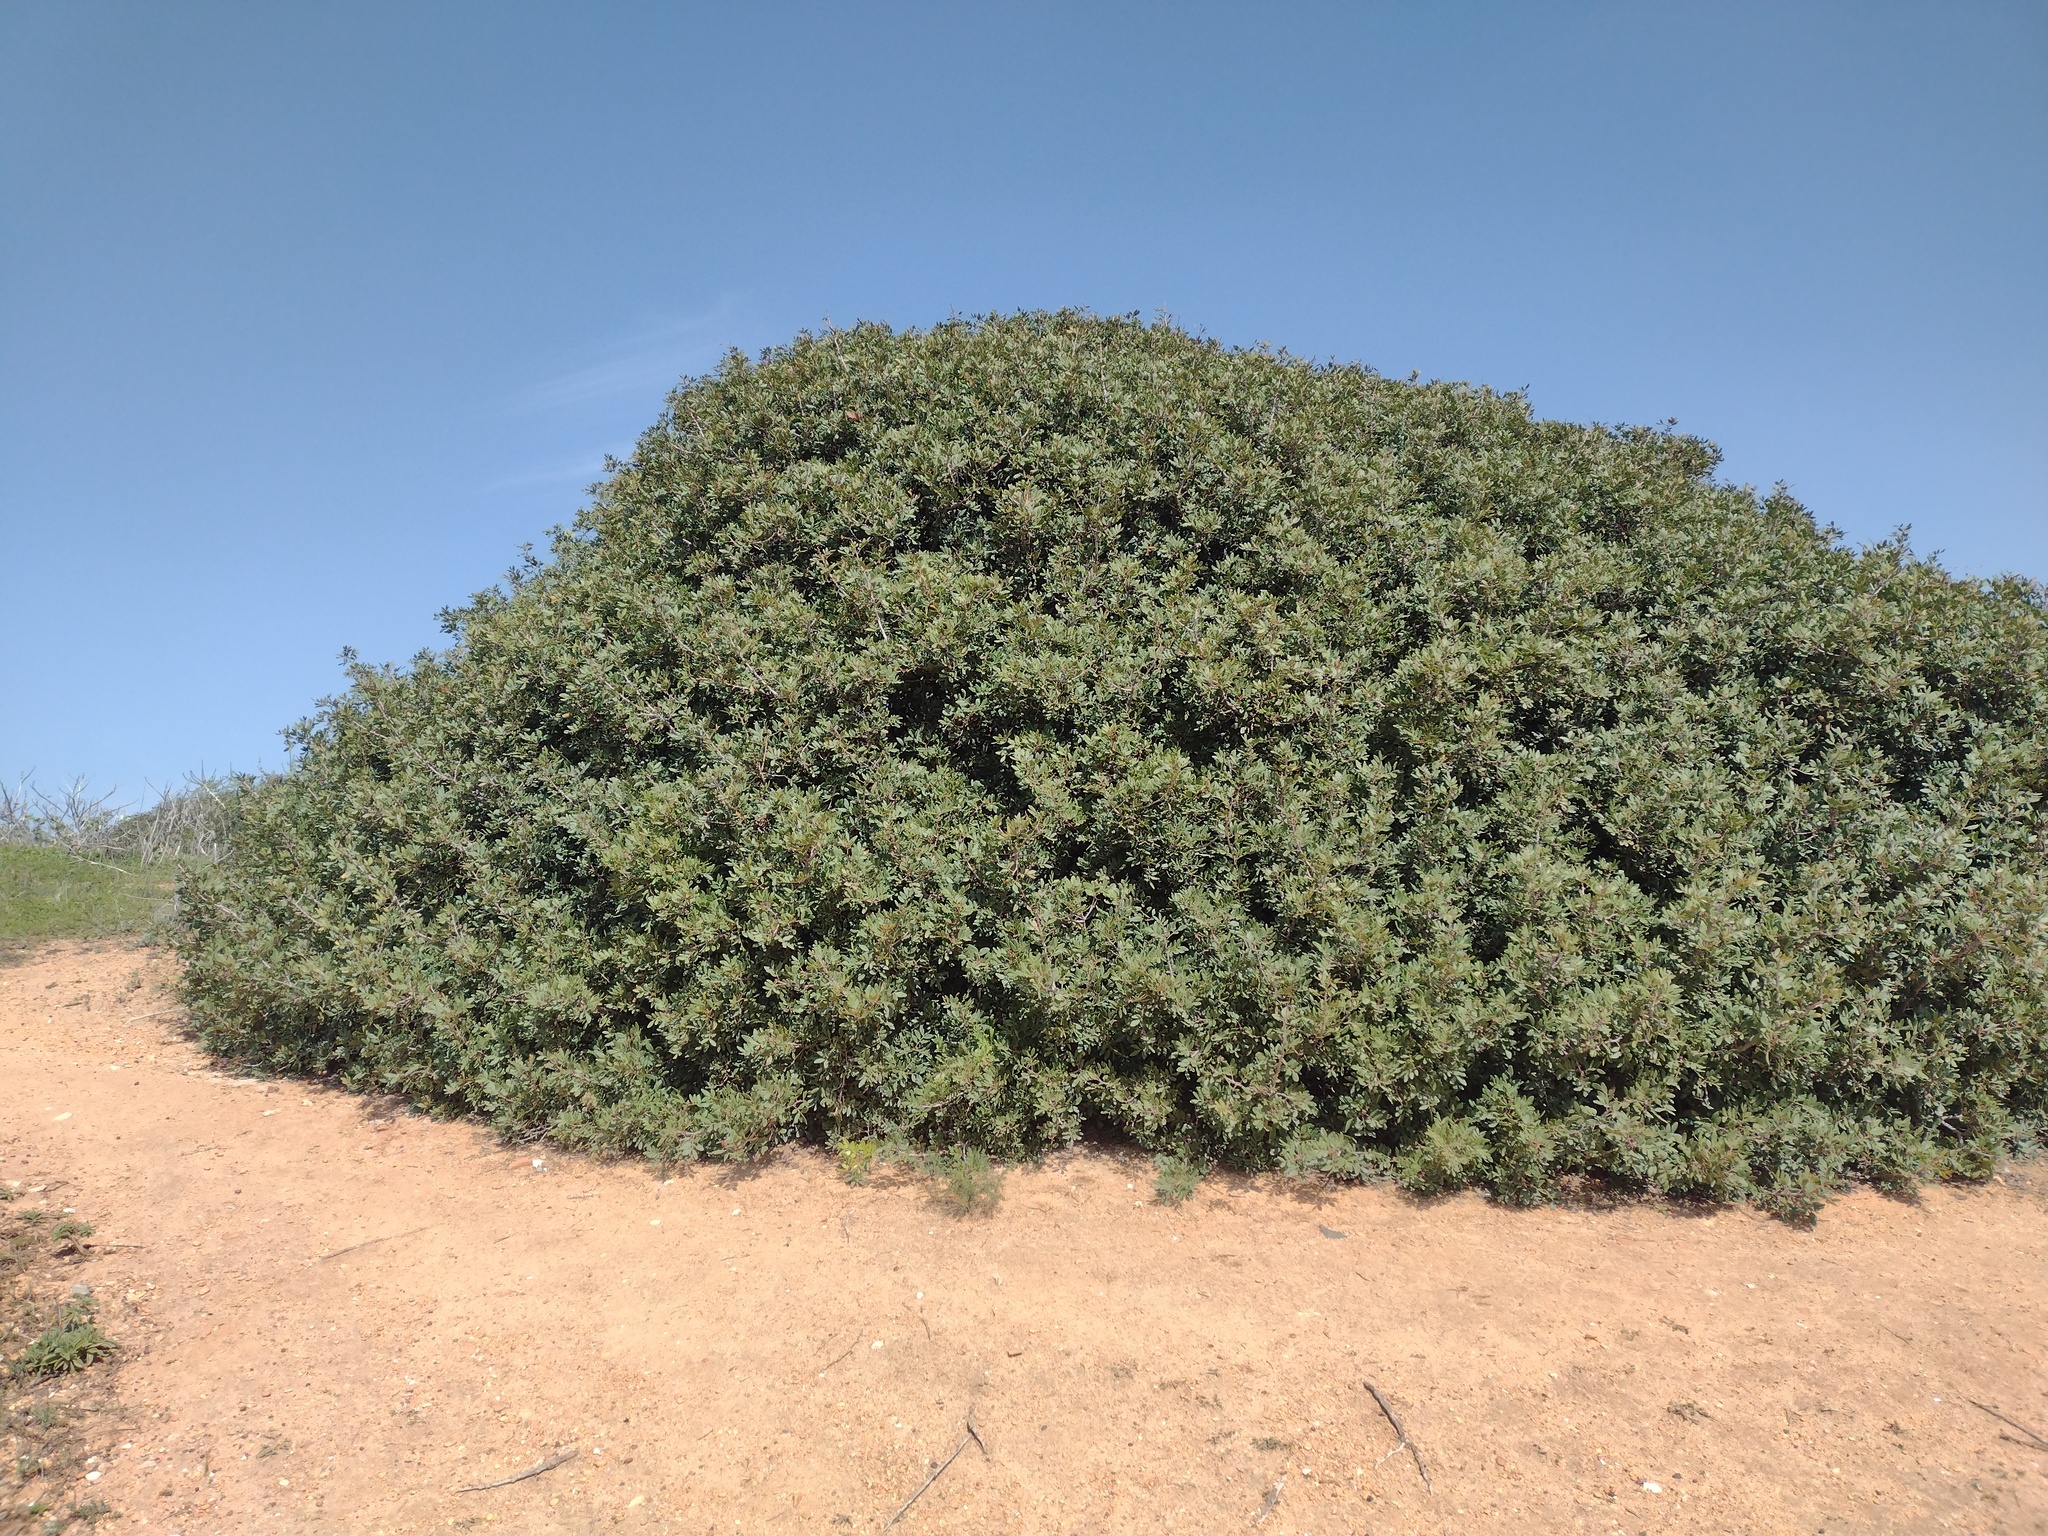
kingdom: Plantae
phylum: Tracheophyta
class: Magnoliopsida
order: Sapindales
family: Anacardiaceae
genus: Pistacia
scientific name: Pistacia lentiscus
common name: Lentisk
